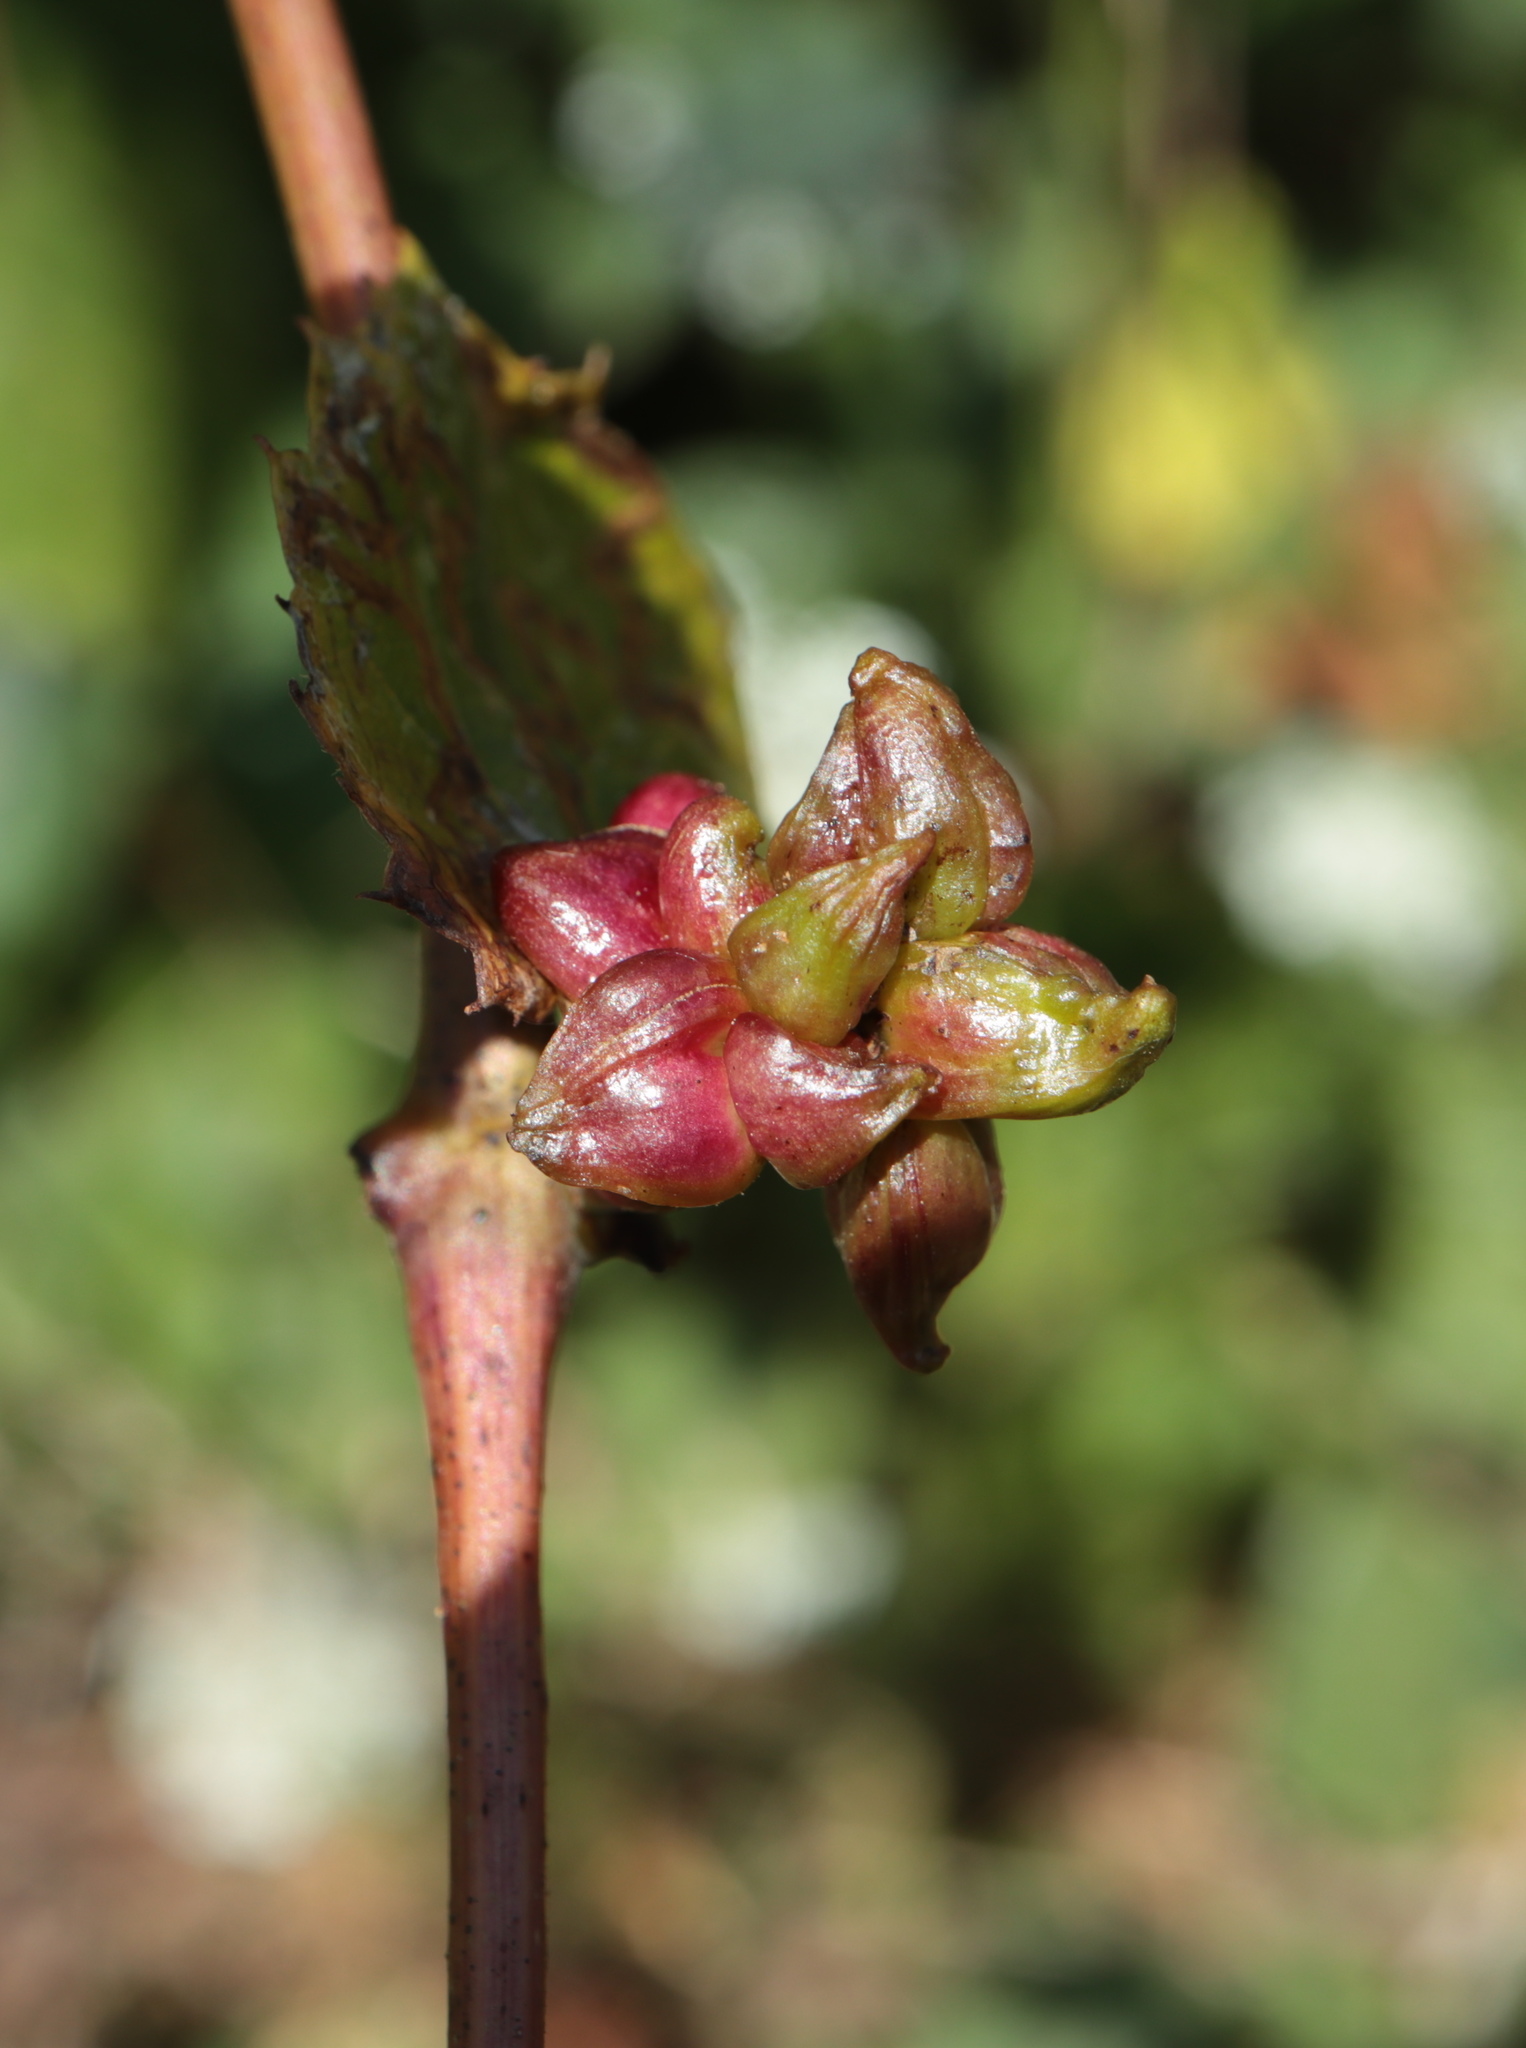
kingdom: Animalia
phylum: Arthropoda
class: Insecta
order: Diptera
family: Cecidomyiidae
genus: Ampelomyia
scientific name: Ampelomyia vitiscoryloides
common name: Grape filbert gall
